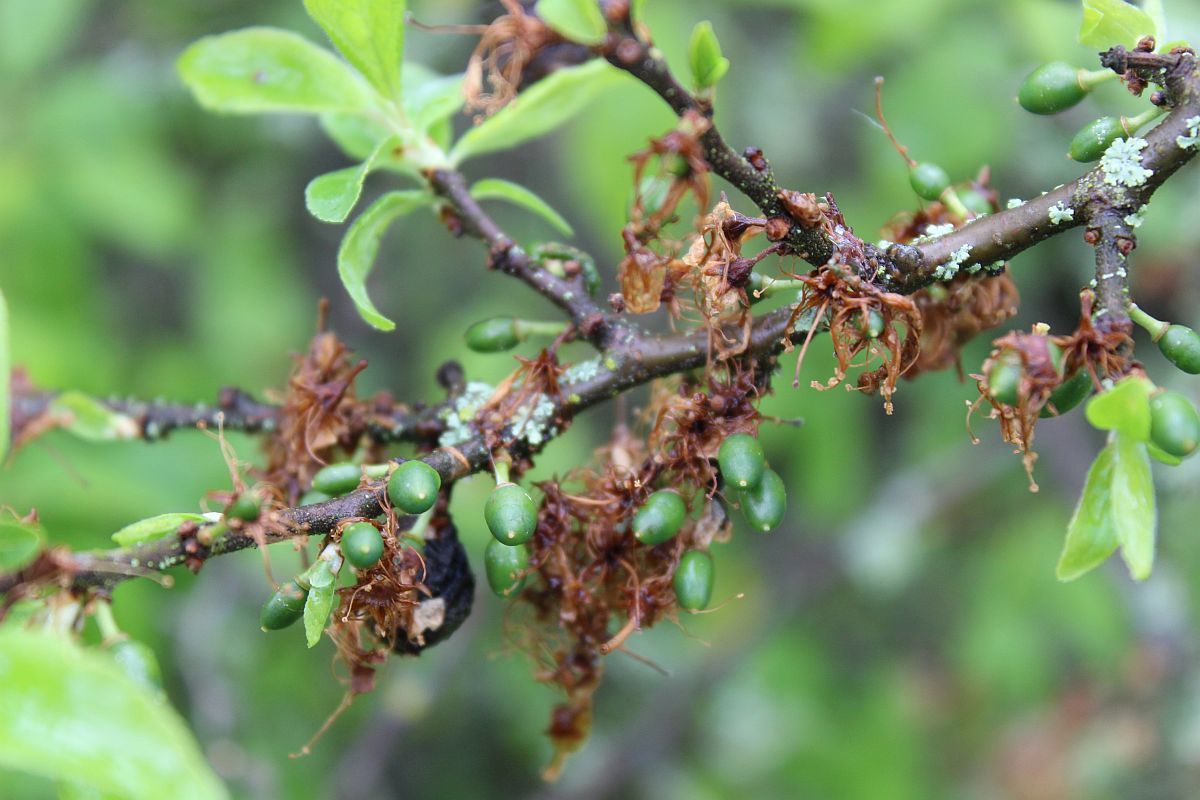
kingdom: Plantae
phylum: Tracheophyta
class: Magnoliopsida
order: Rosales
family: Rosaceae
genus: Prunus
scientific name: Prunus spinosa
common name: Blackthorn
